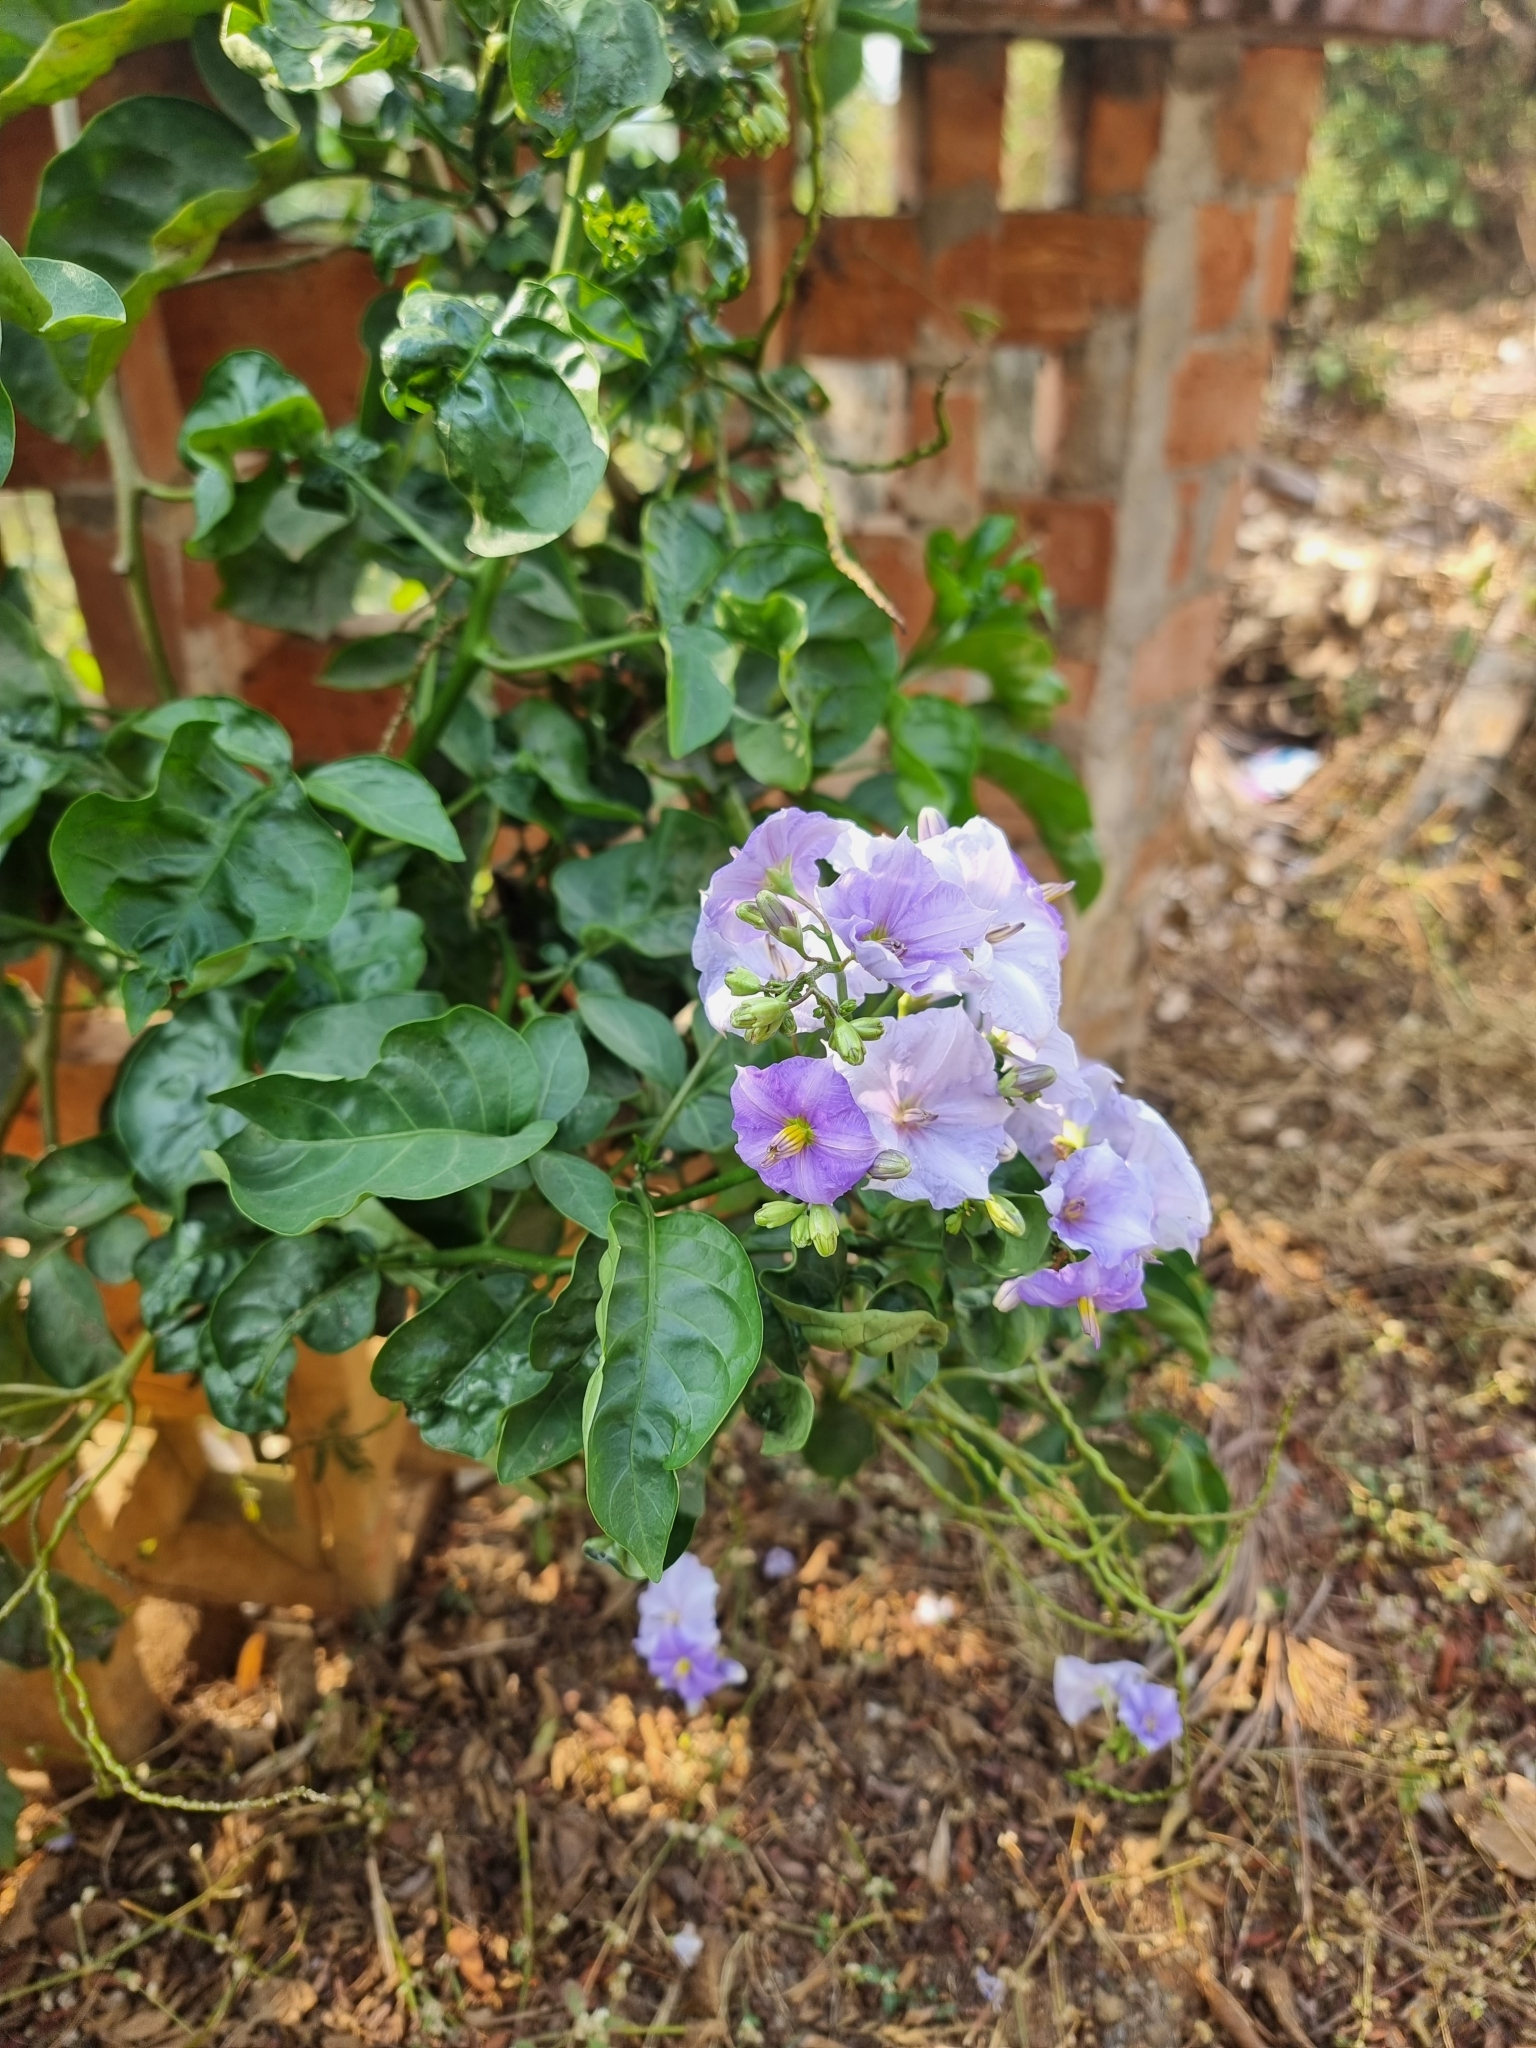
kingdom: Plantae
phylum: Tracheophyta
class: Magnoliopsida
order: Solanales
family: Solanaceae
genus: Solanum
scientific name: Solanum wendlandii
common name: Costa rican nightshade
